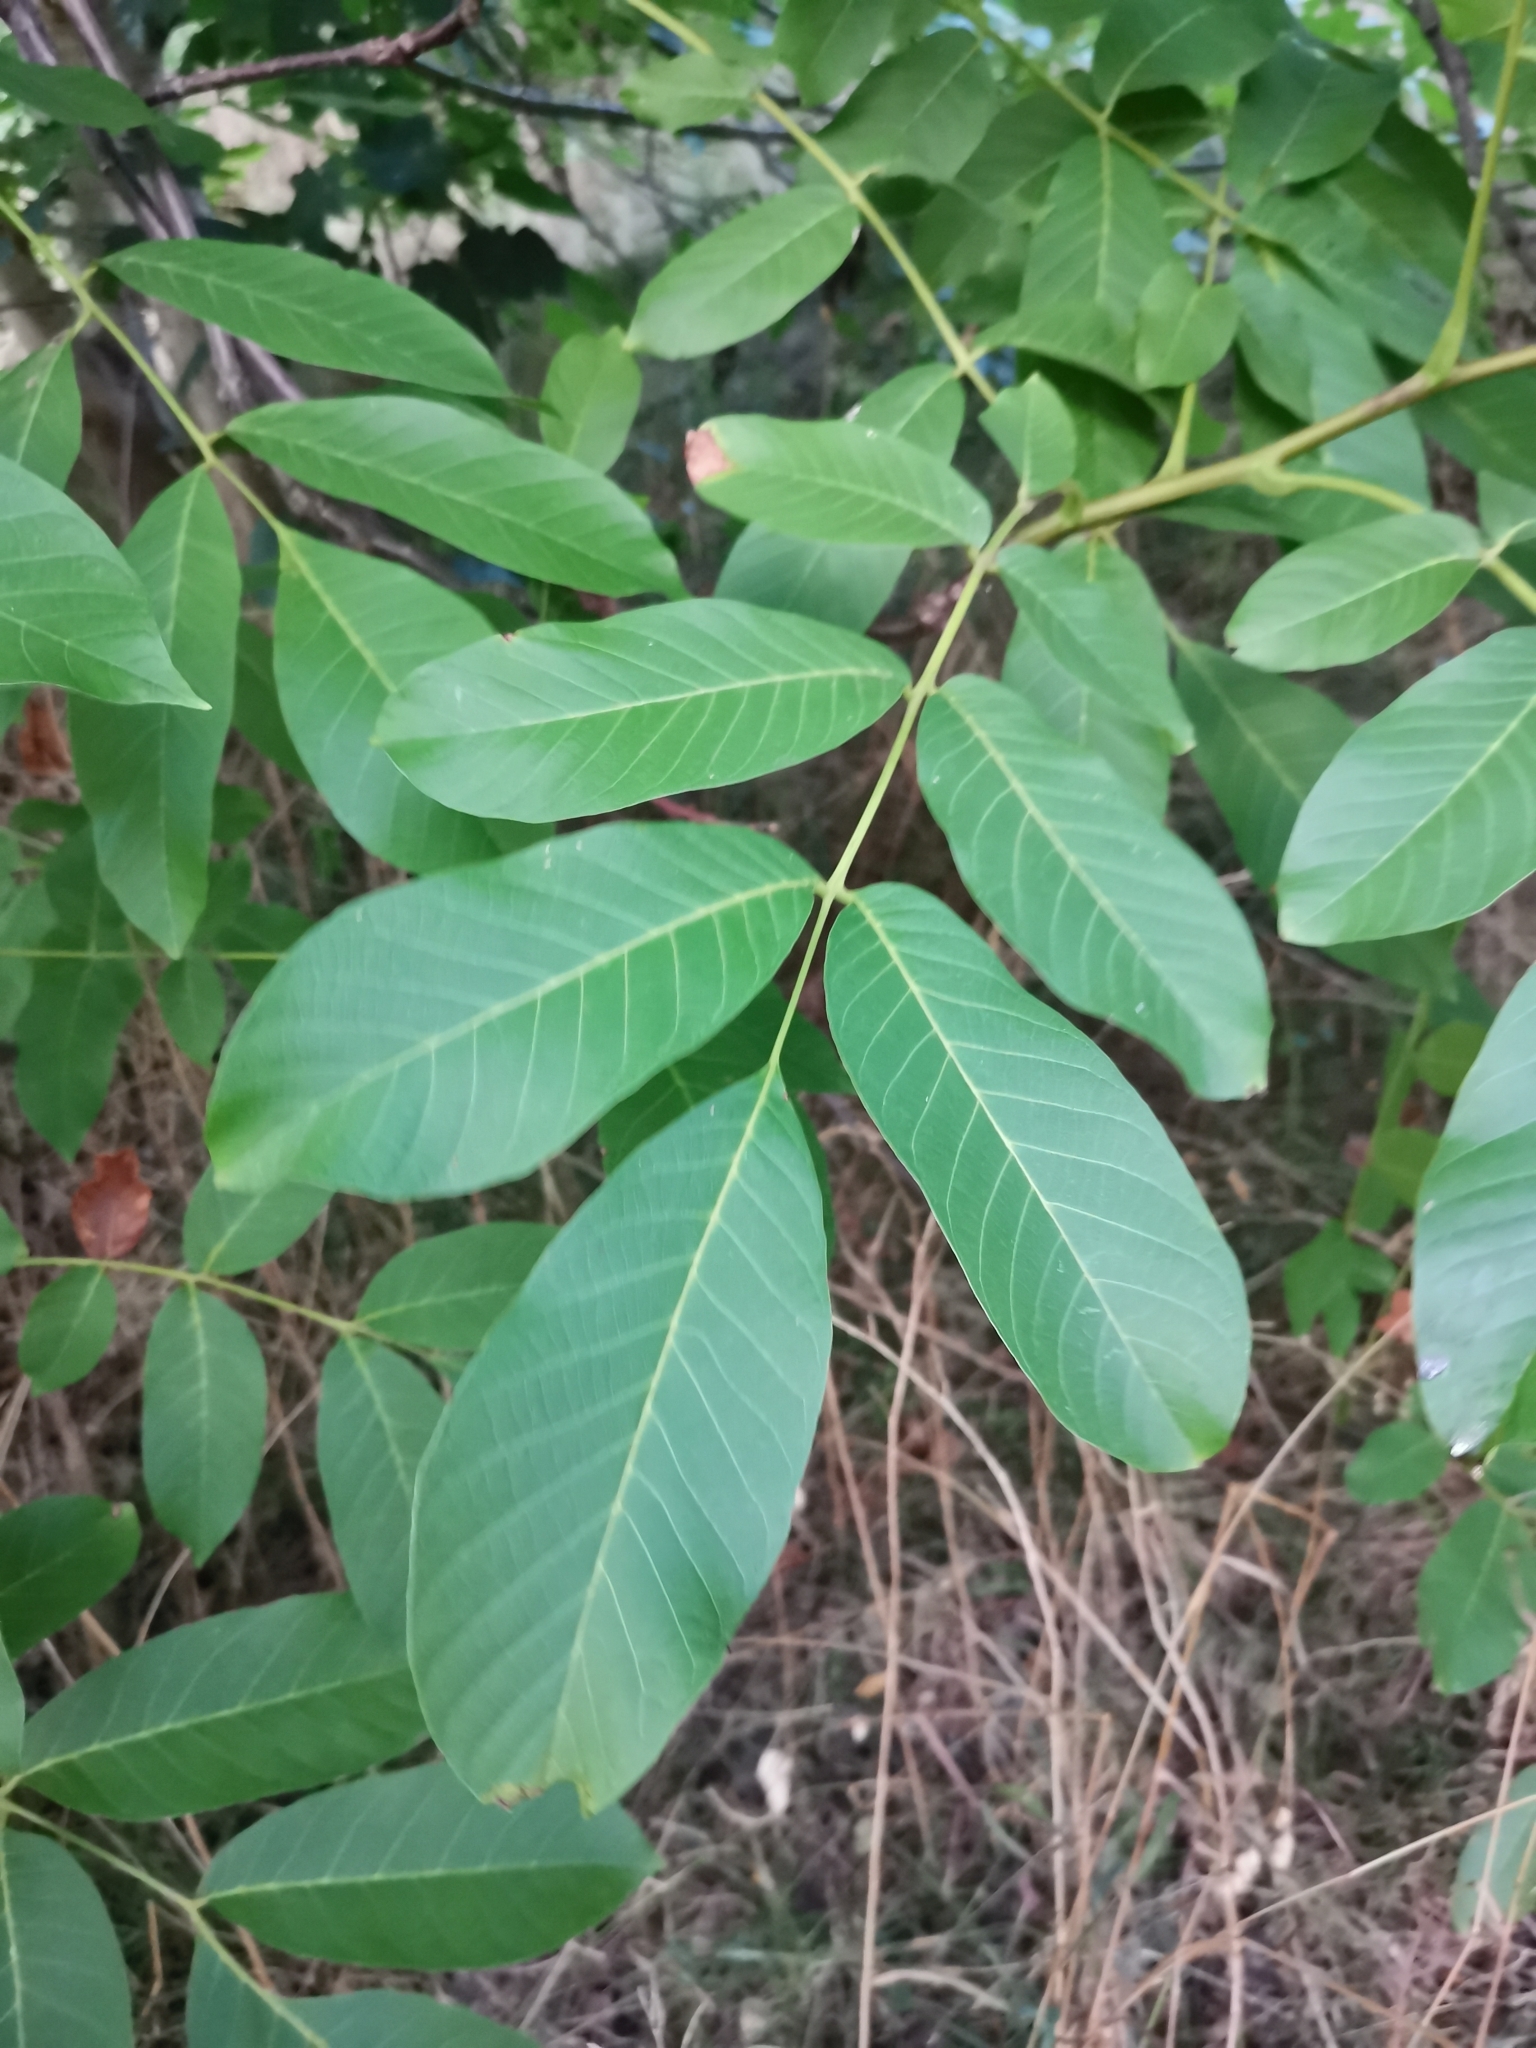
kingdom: Plantae
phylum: Tracheophyta
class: Magnoliopsida
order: Fagales
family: Juglandaceae
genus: Juglans
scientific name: Juglans regia
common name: Walnut
